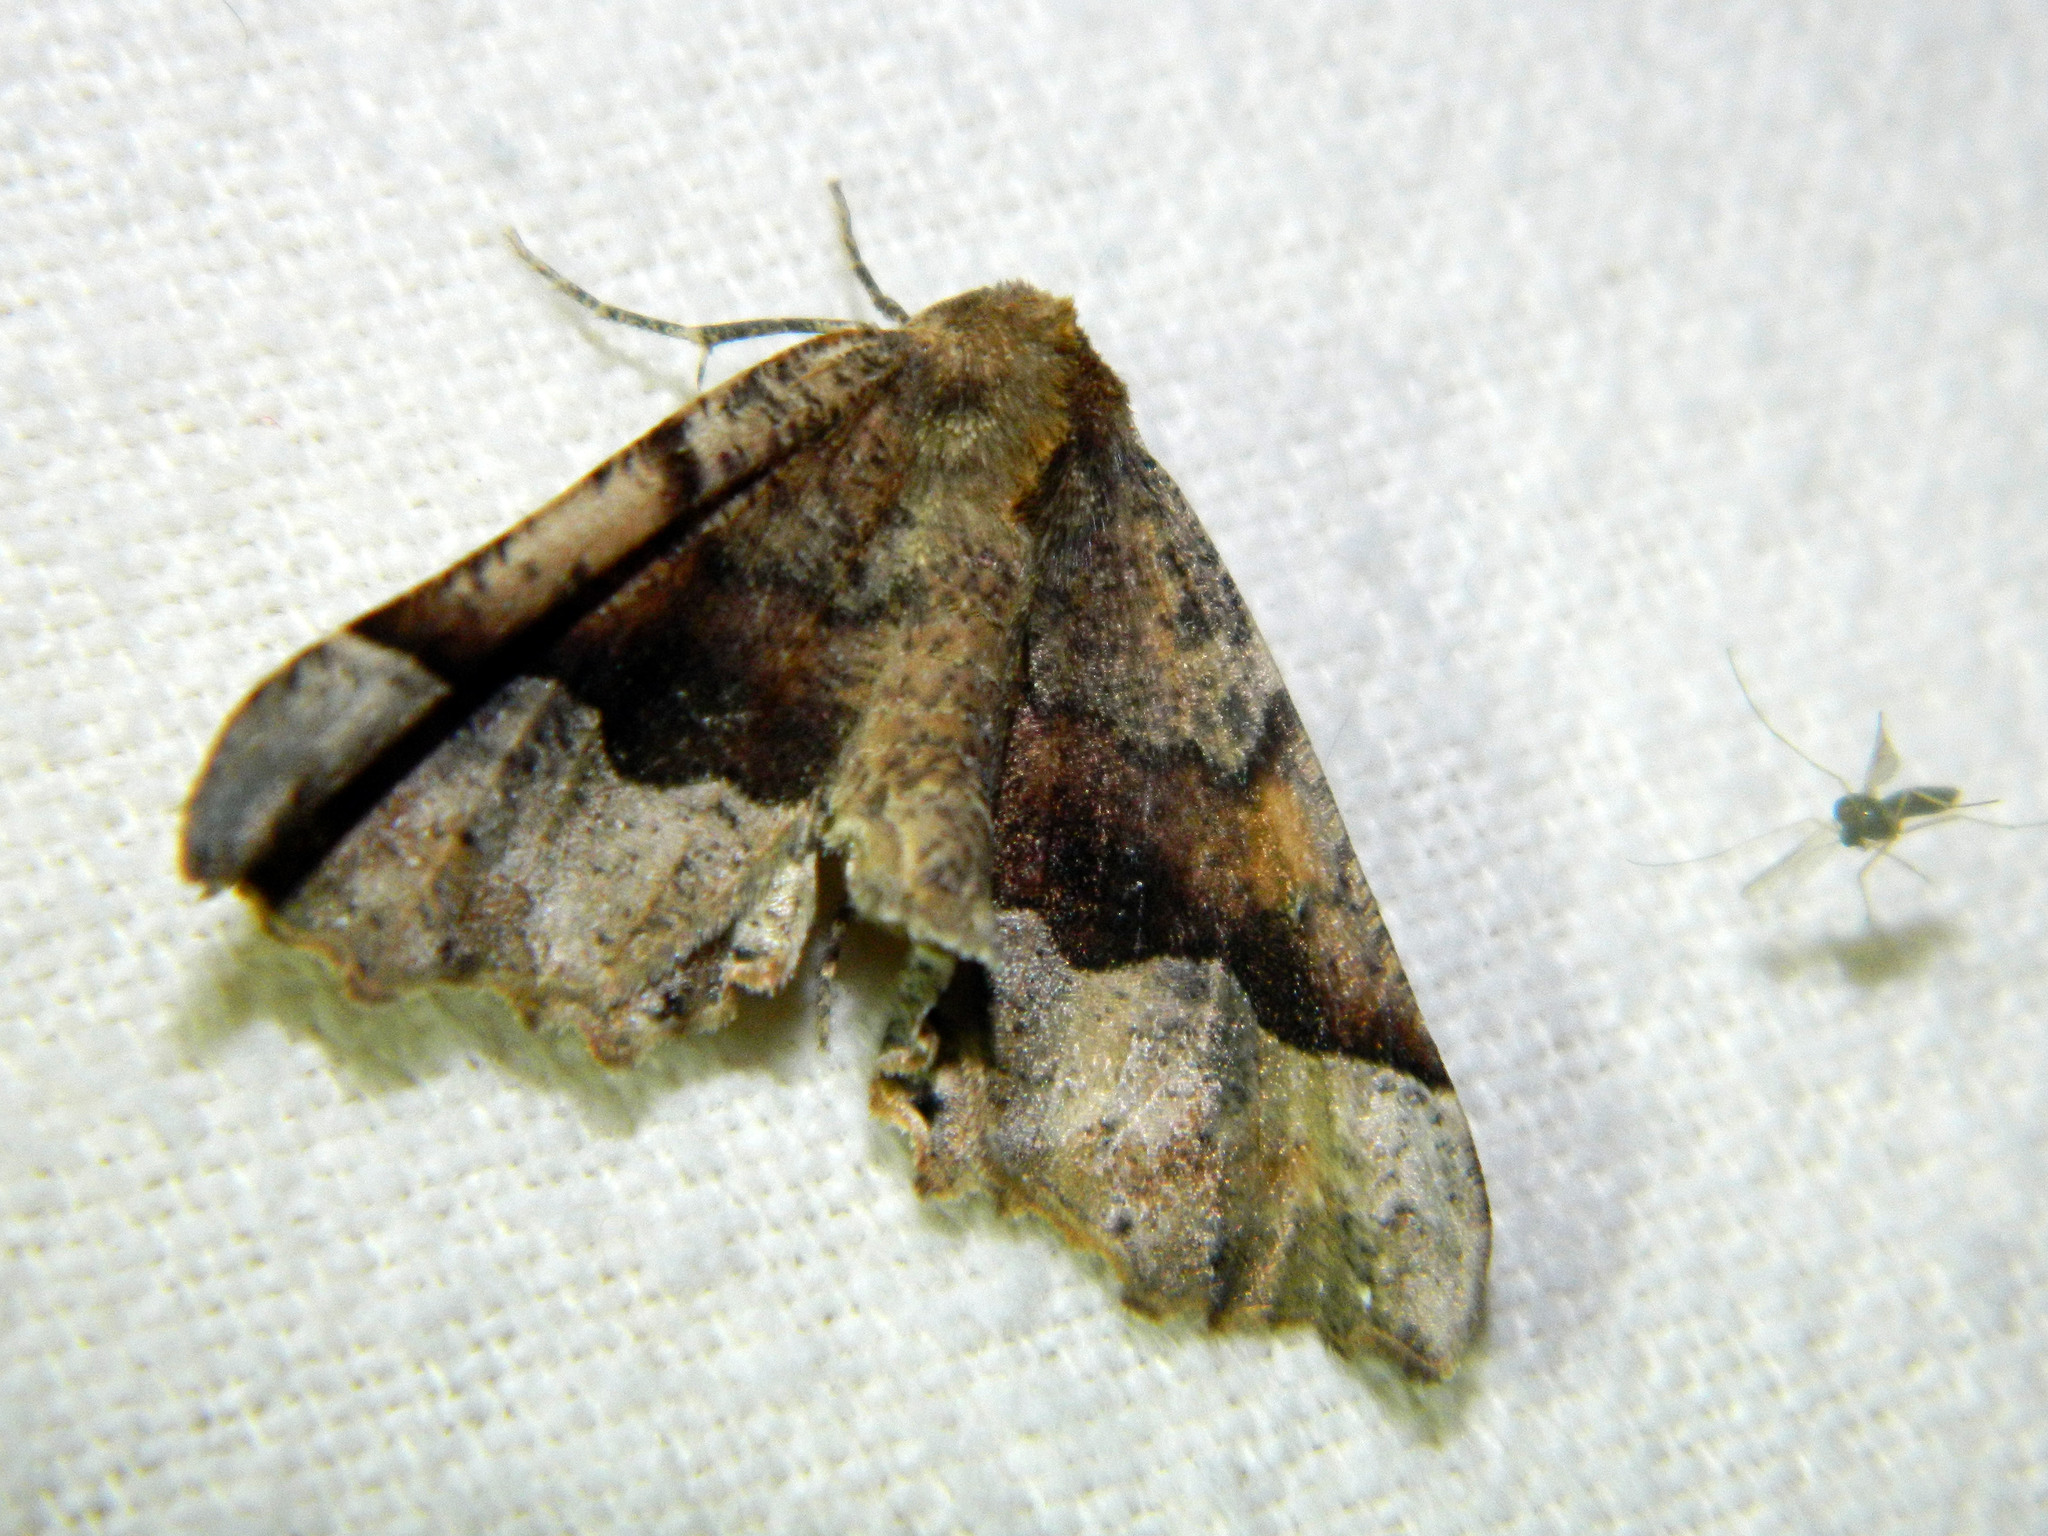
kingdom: Animalia
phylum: Arthropoda
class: Insecta
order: Lepidoptera
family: Geometridae
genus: Pero
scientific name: Pero morrisonaria
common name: Morrison's pero
